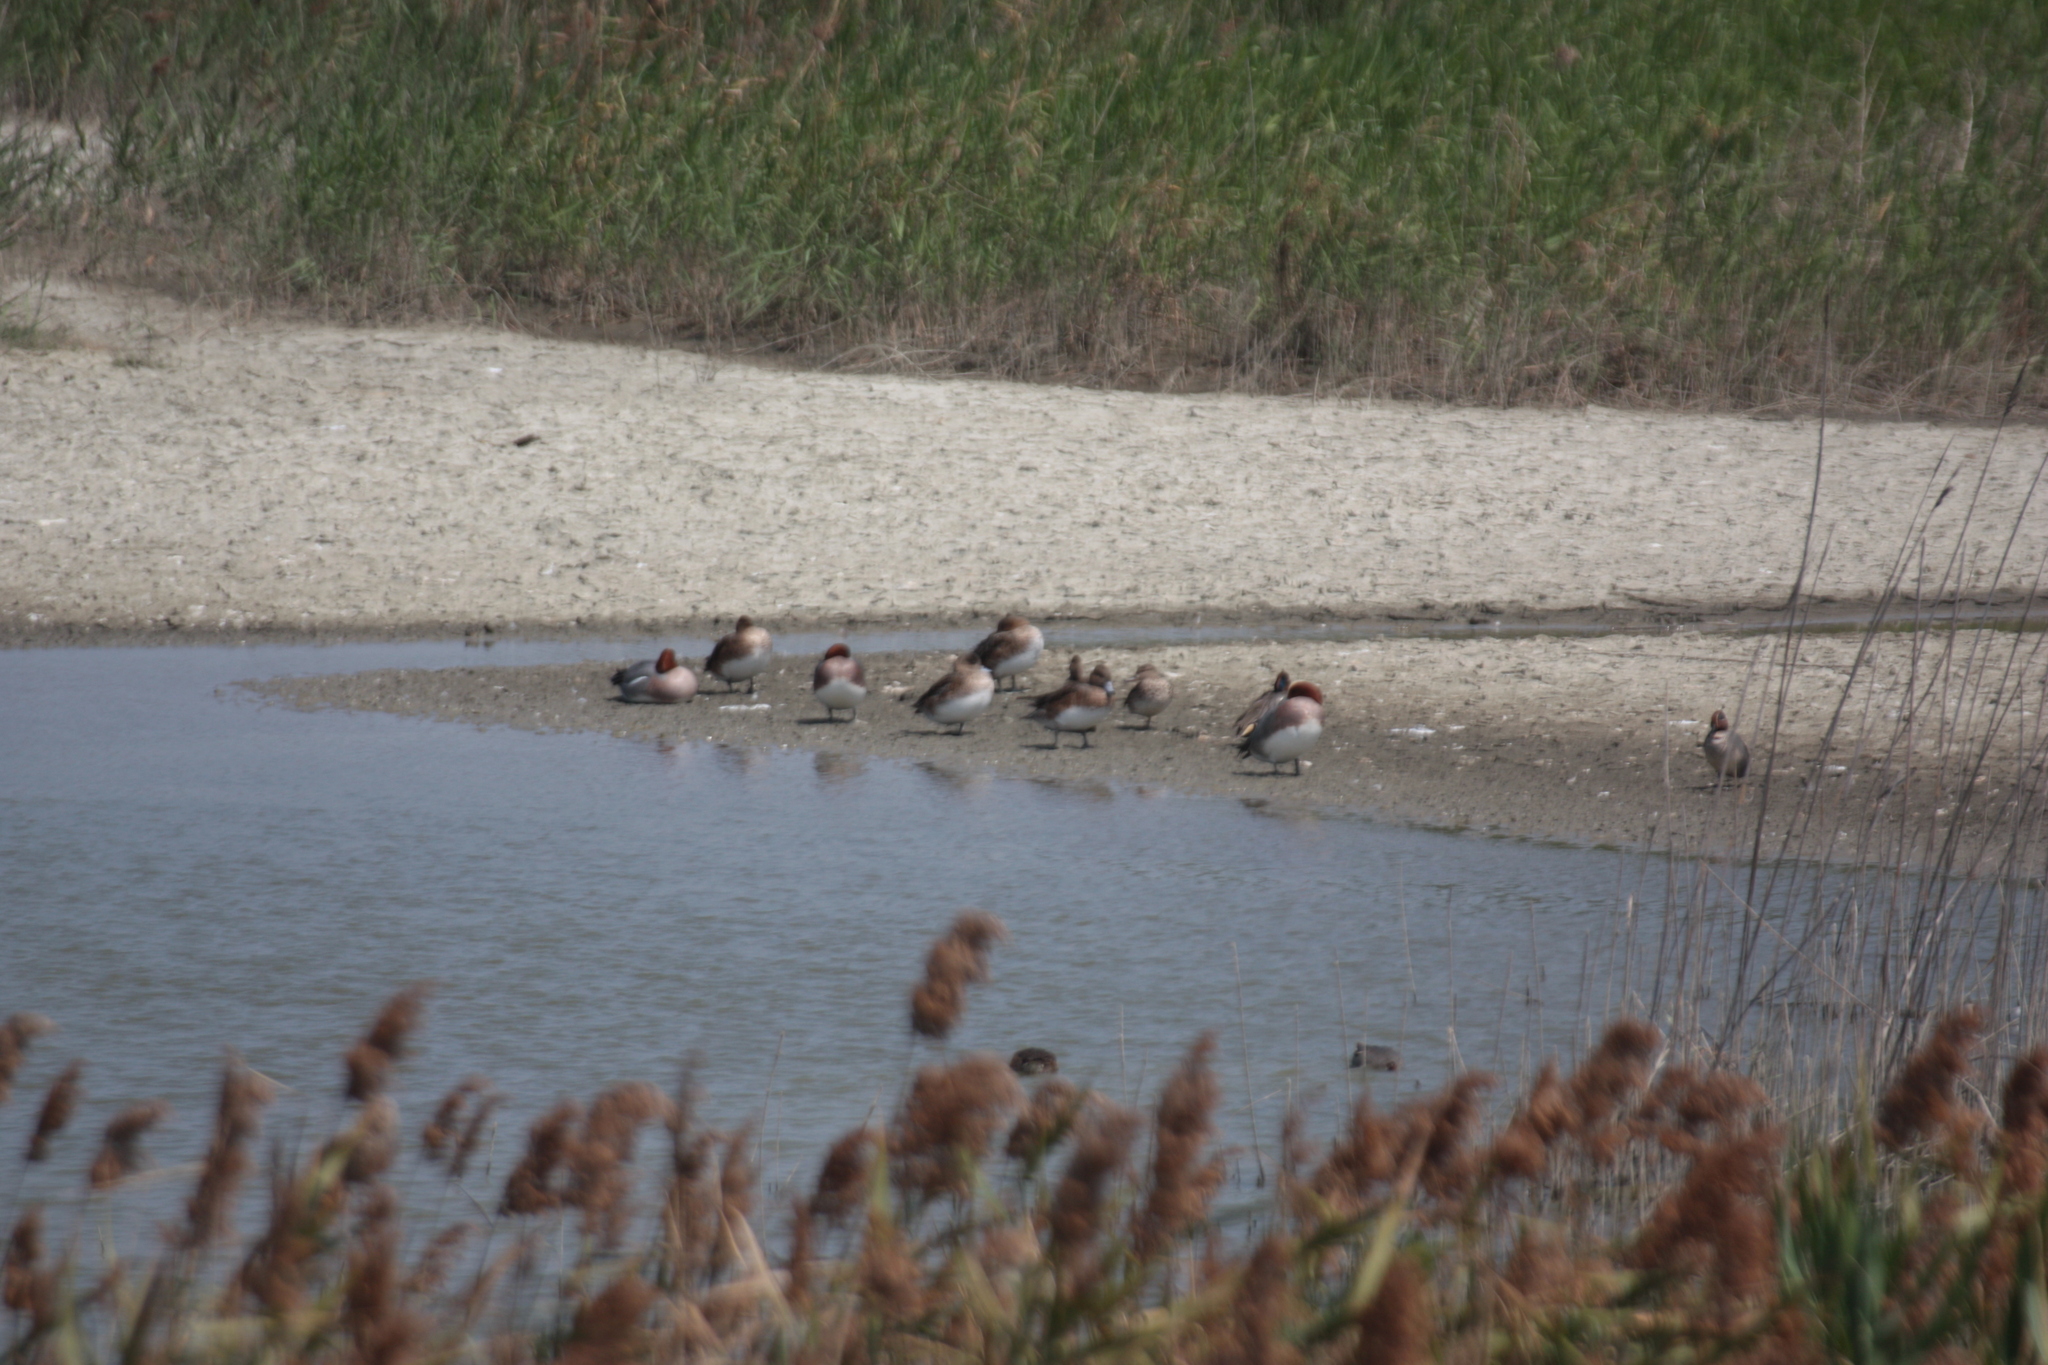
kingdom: Animalia
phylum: Chordata
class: Aves
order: Anseriformes
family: Anatidae
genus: Mareca
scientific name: Mareca penelope
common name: Eurasian wigeon
